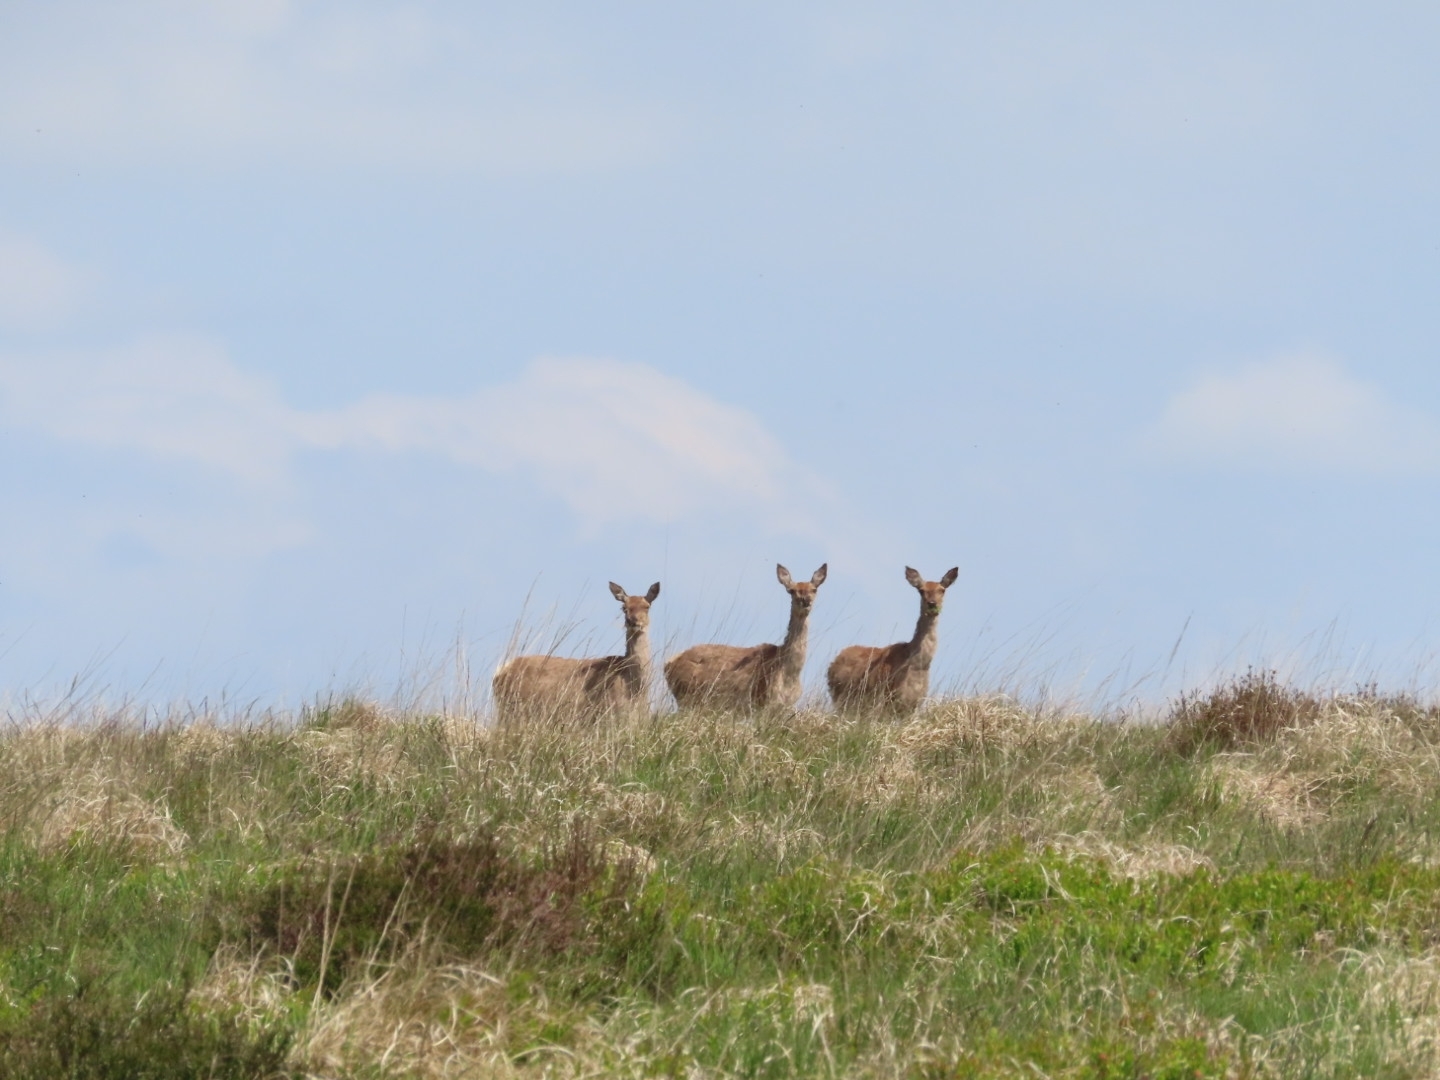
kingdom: Animalia
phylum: Chordata
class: Mammalia
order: Artiodactyla
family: Cervidae
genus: Cervus
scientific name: Cervus elaphus
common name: Red deer
